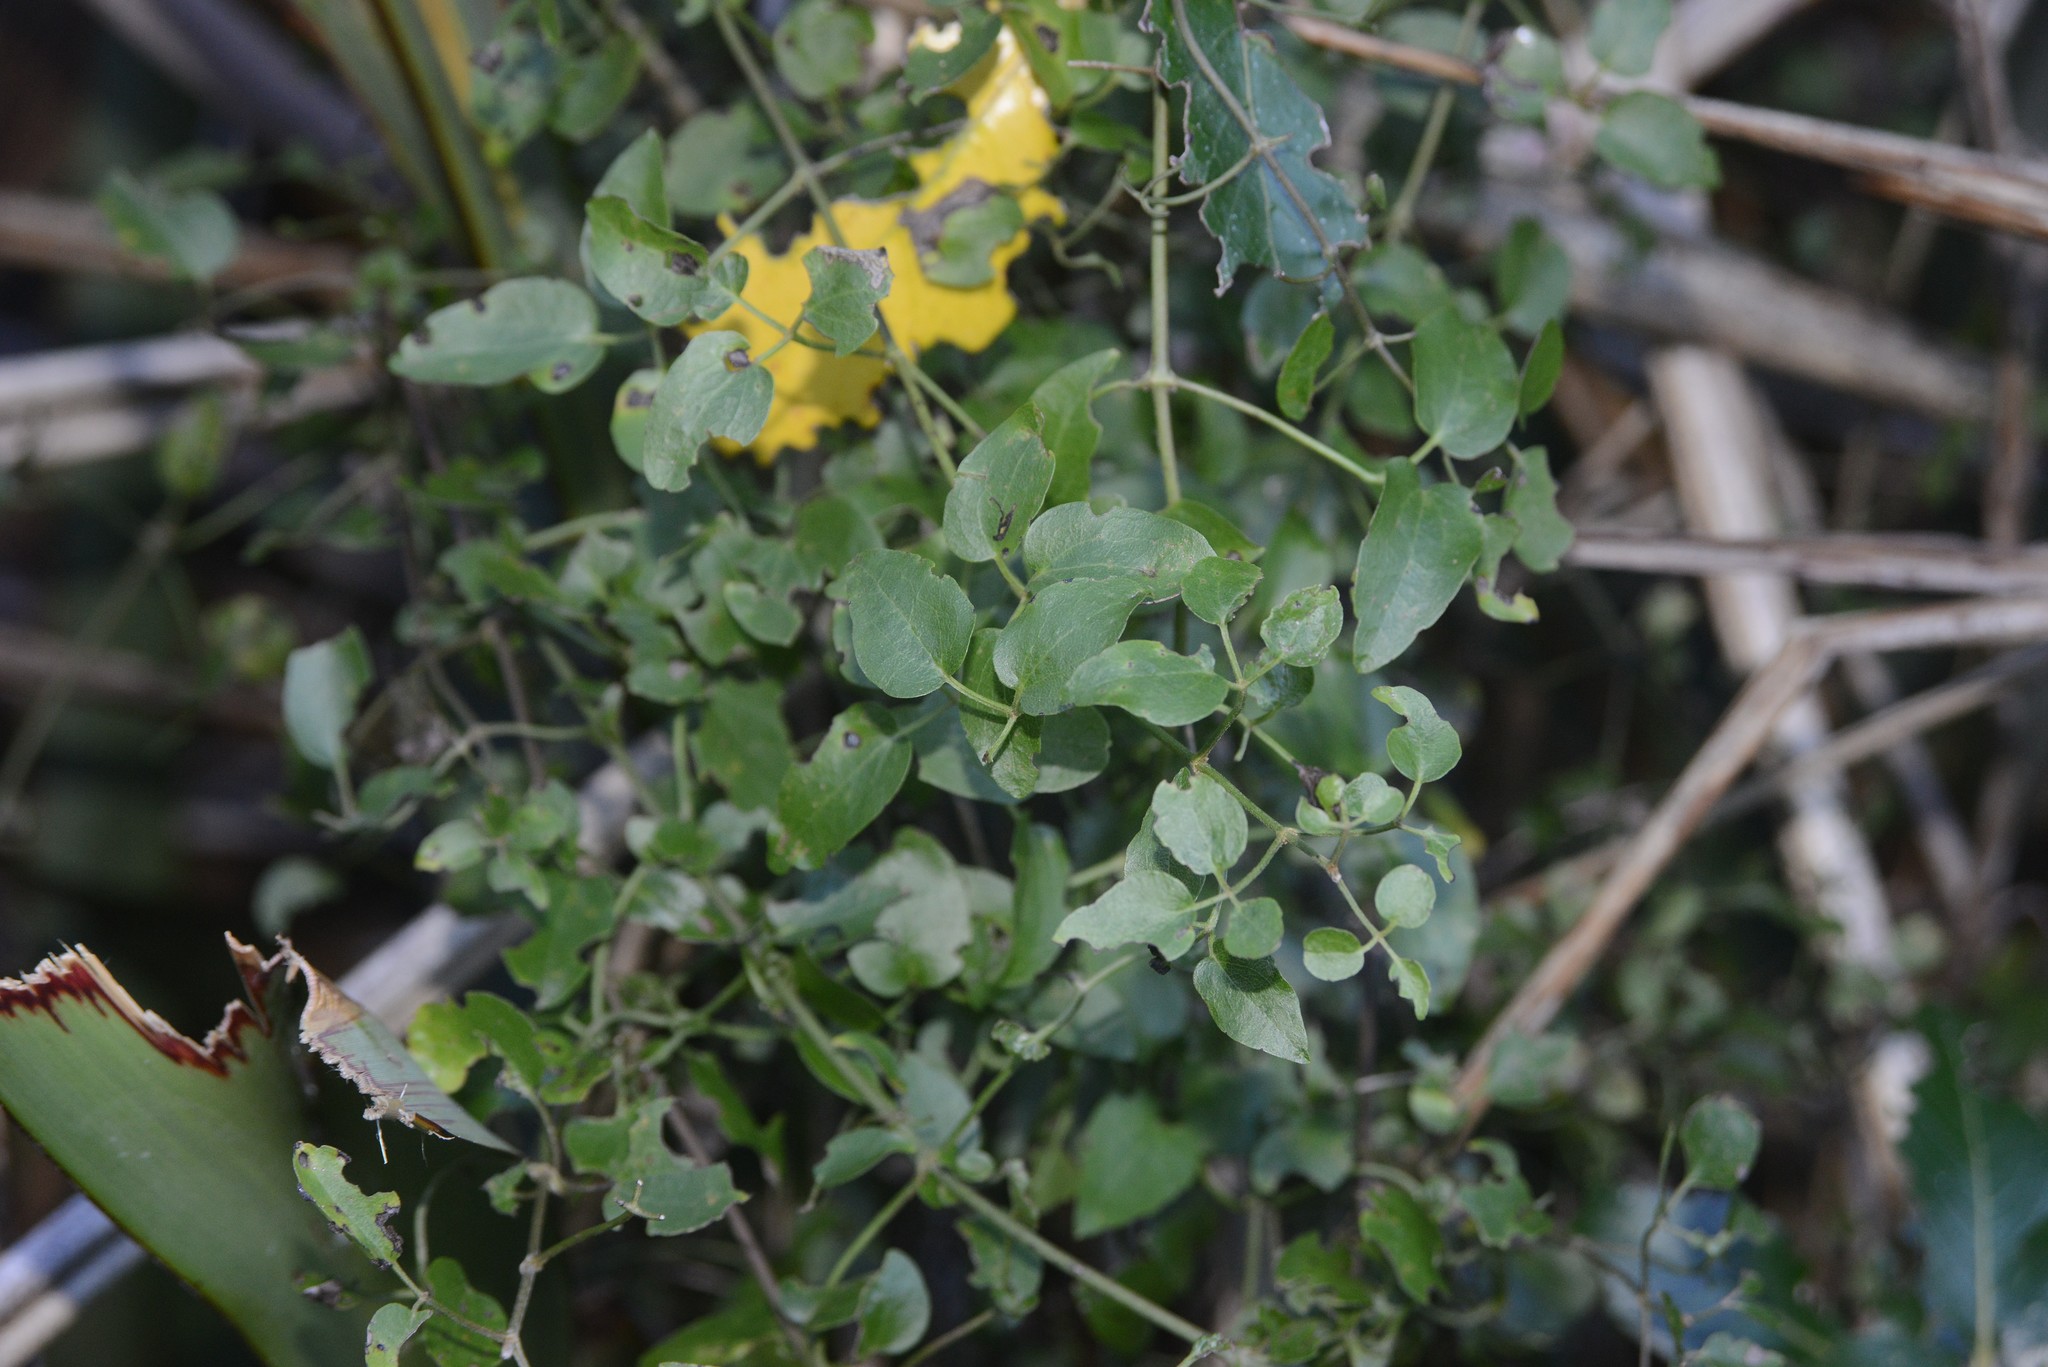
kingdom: Plantae
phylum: Tracheophyta
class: Magnoliopsida
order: Ranunculales
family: Ranunculaceae
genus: Clematis
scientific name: Clematis foetida
